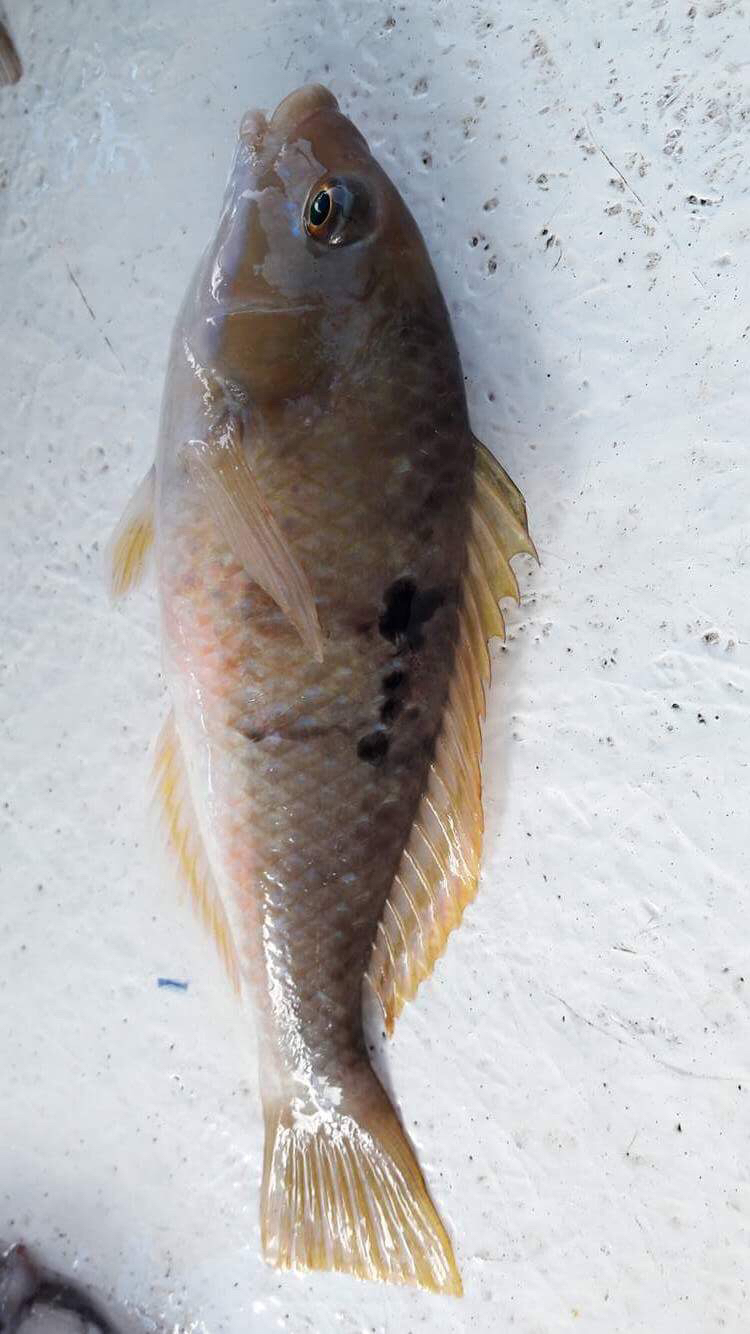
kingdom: Animalia
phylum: Chordata
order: Perciformes
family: Labridae
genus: Notolabrus
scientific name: Notolabrus celidotus
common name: Spotty
